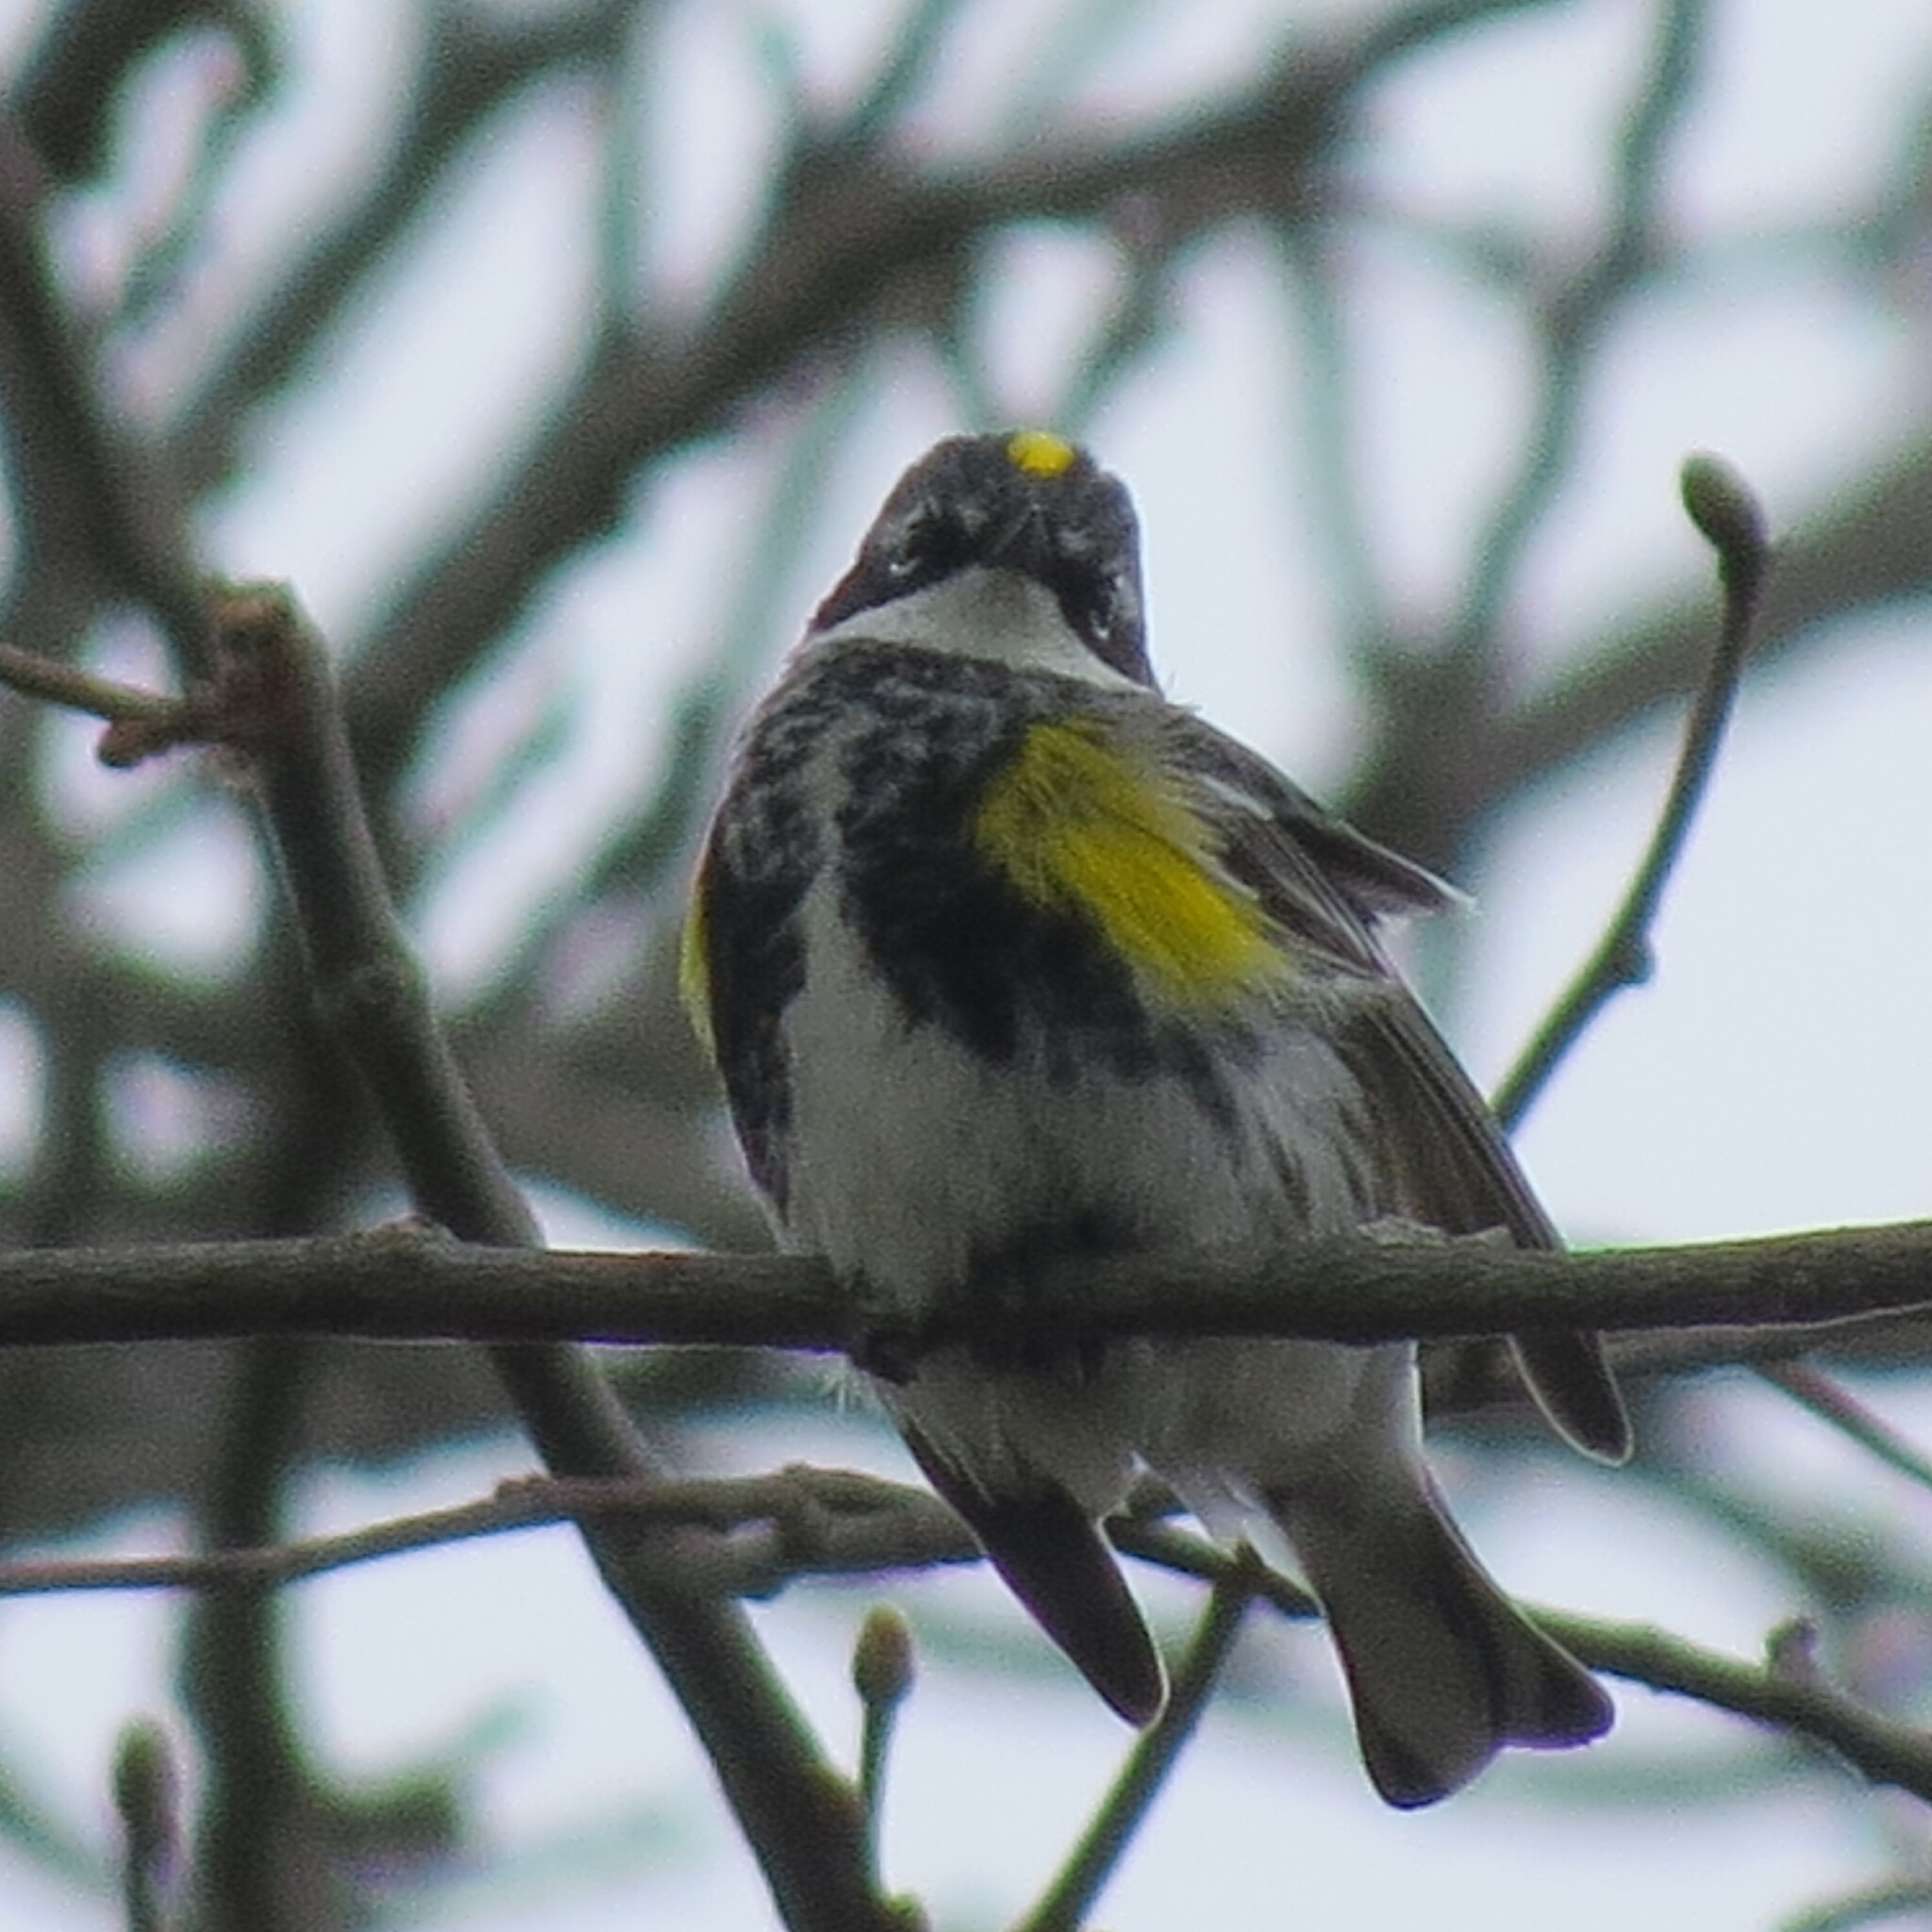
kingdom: Animalia
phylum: Chordata
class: Aves
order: Passeriformes
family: Parulidae
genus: Setophaga
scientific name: Setophaga coronata
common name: Myrtle warbler
